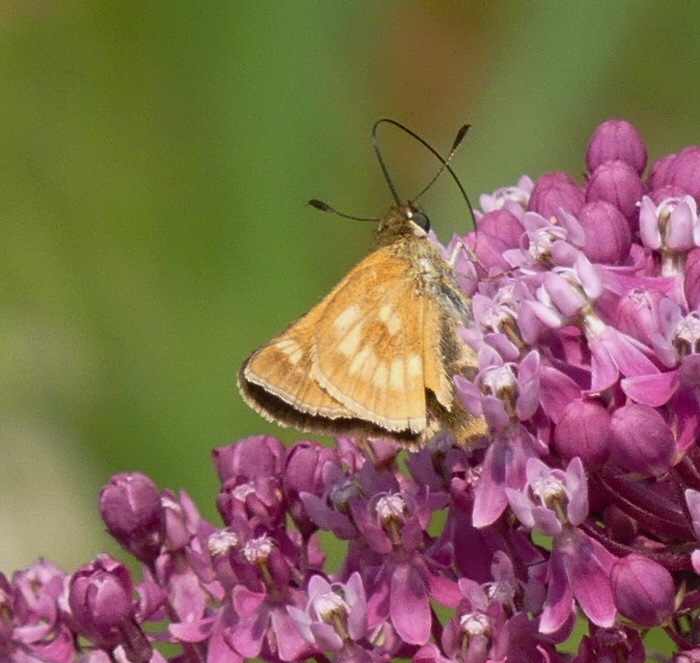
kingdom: Animalia
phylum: Arthropoda
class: Insecta
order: Lepidoptera
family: Hesperiidae
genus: Polites
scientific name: Polites mystic
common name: Long dash
